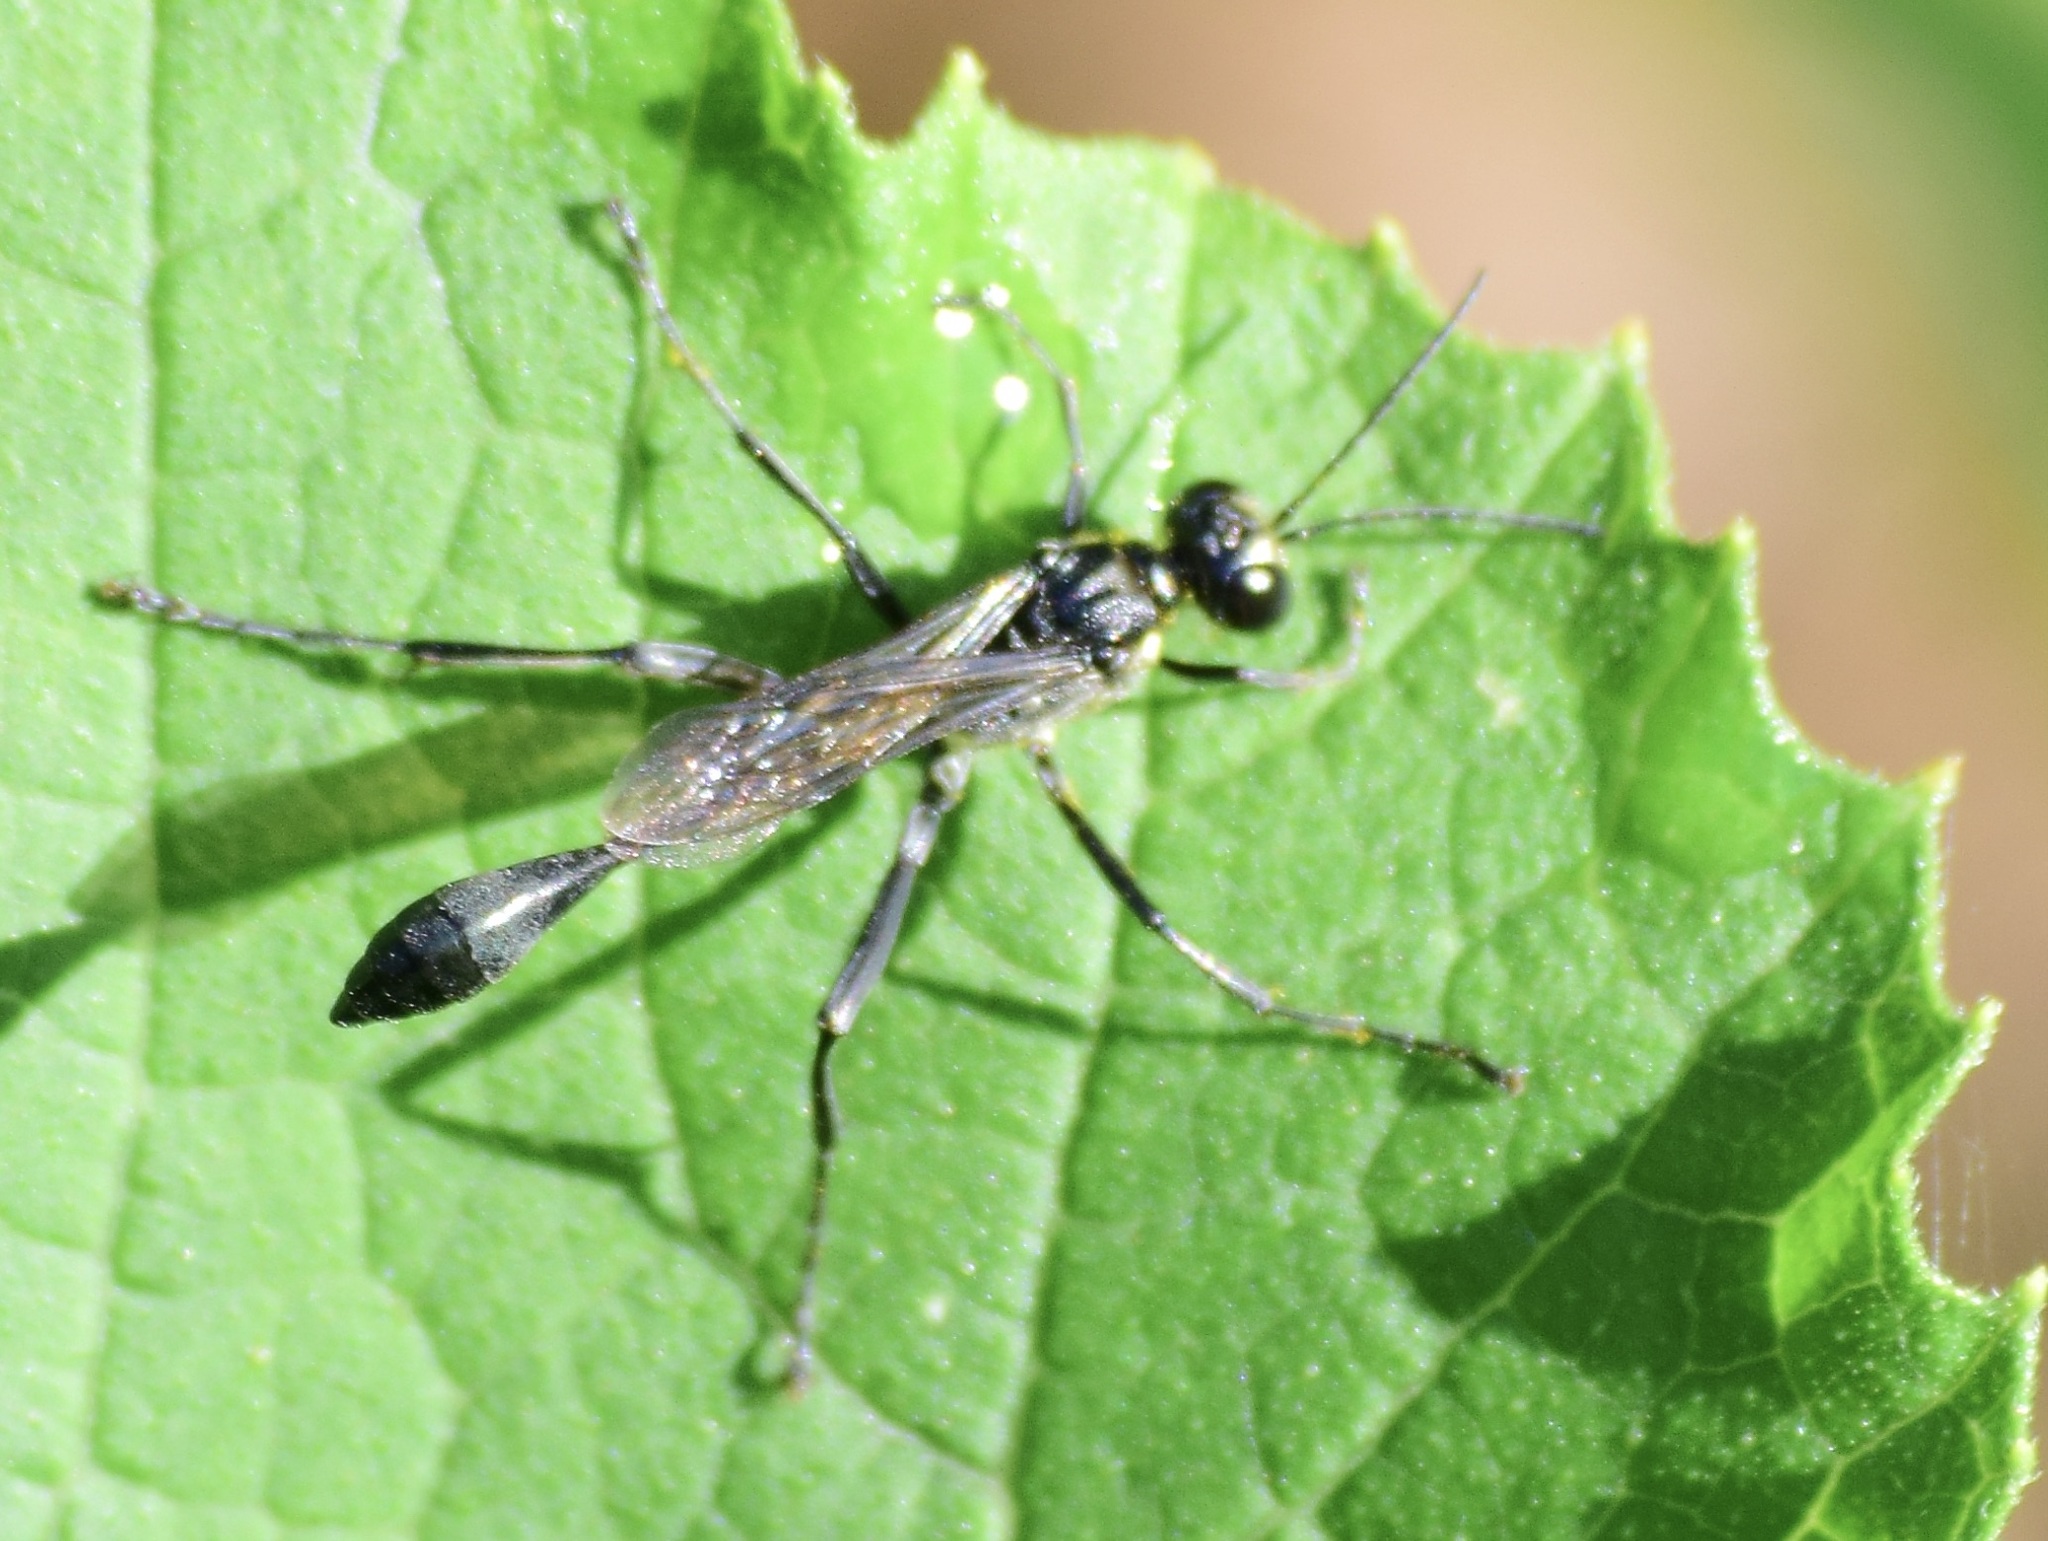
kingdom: Animalia
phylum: Arthropoda
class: Insecta
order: Hymenoptera
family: Sphecidae
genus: Eremnophila
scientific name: Eremnophila aureonotata
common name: Gold-marked thread-waisted wasp
